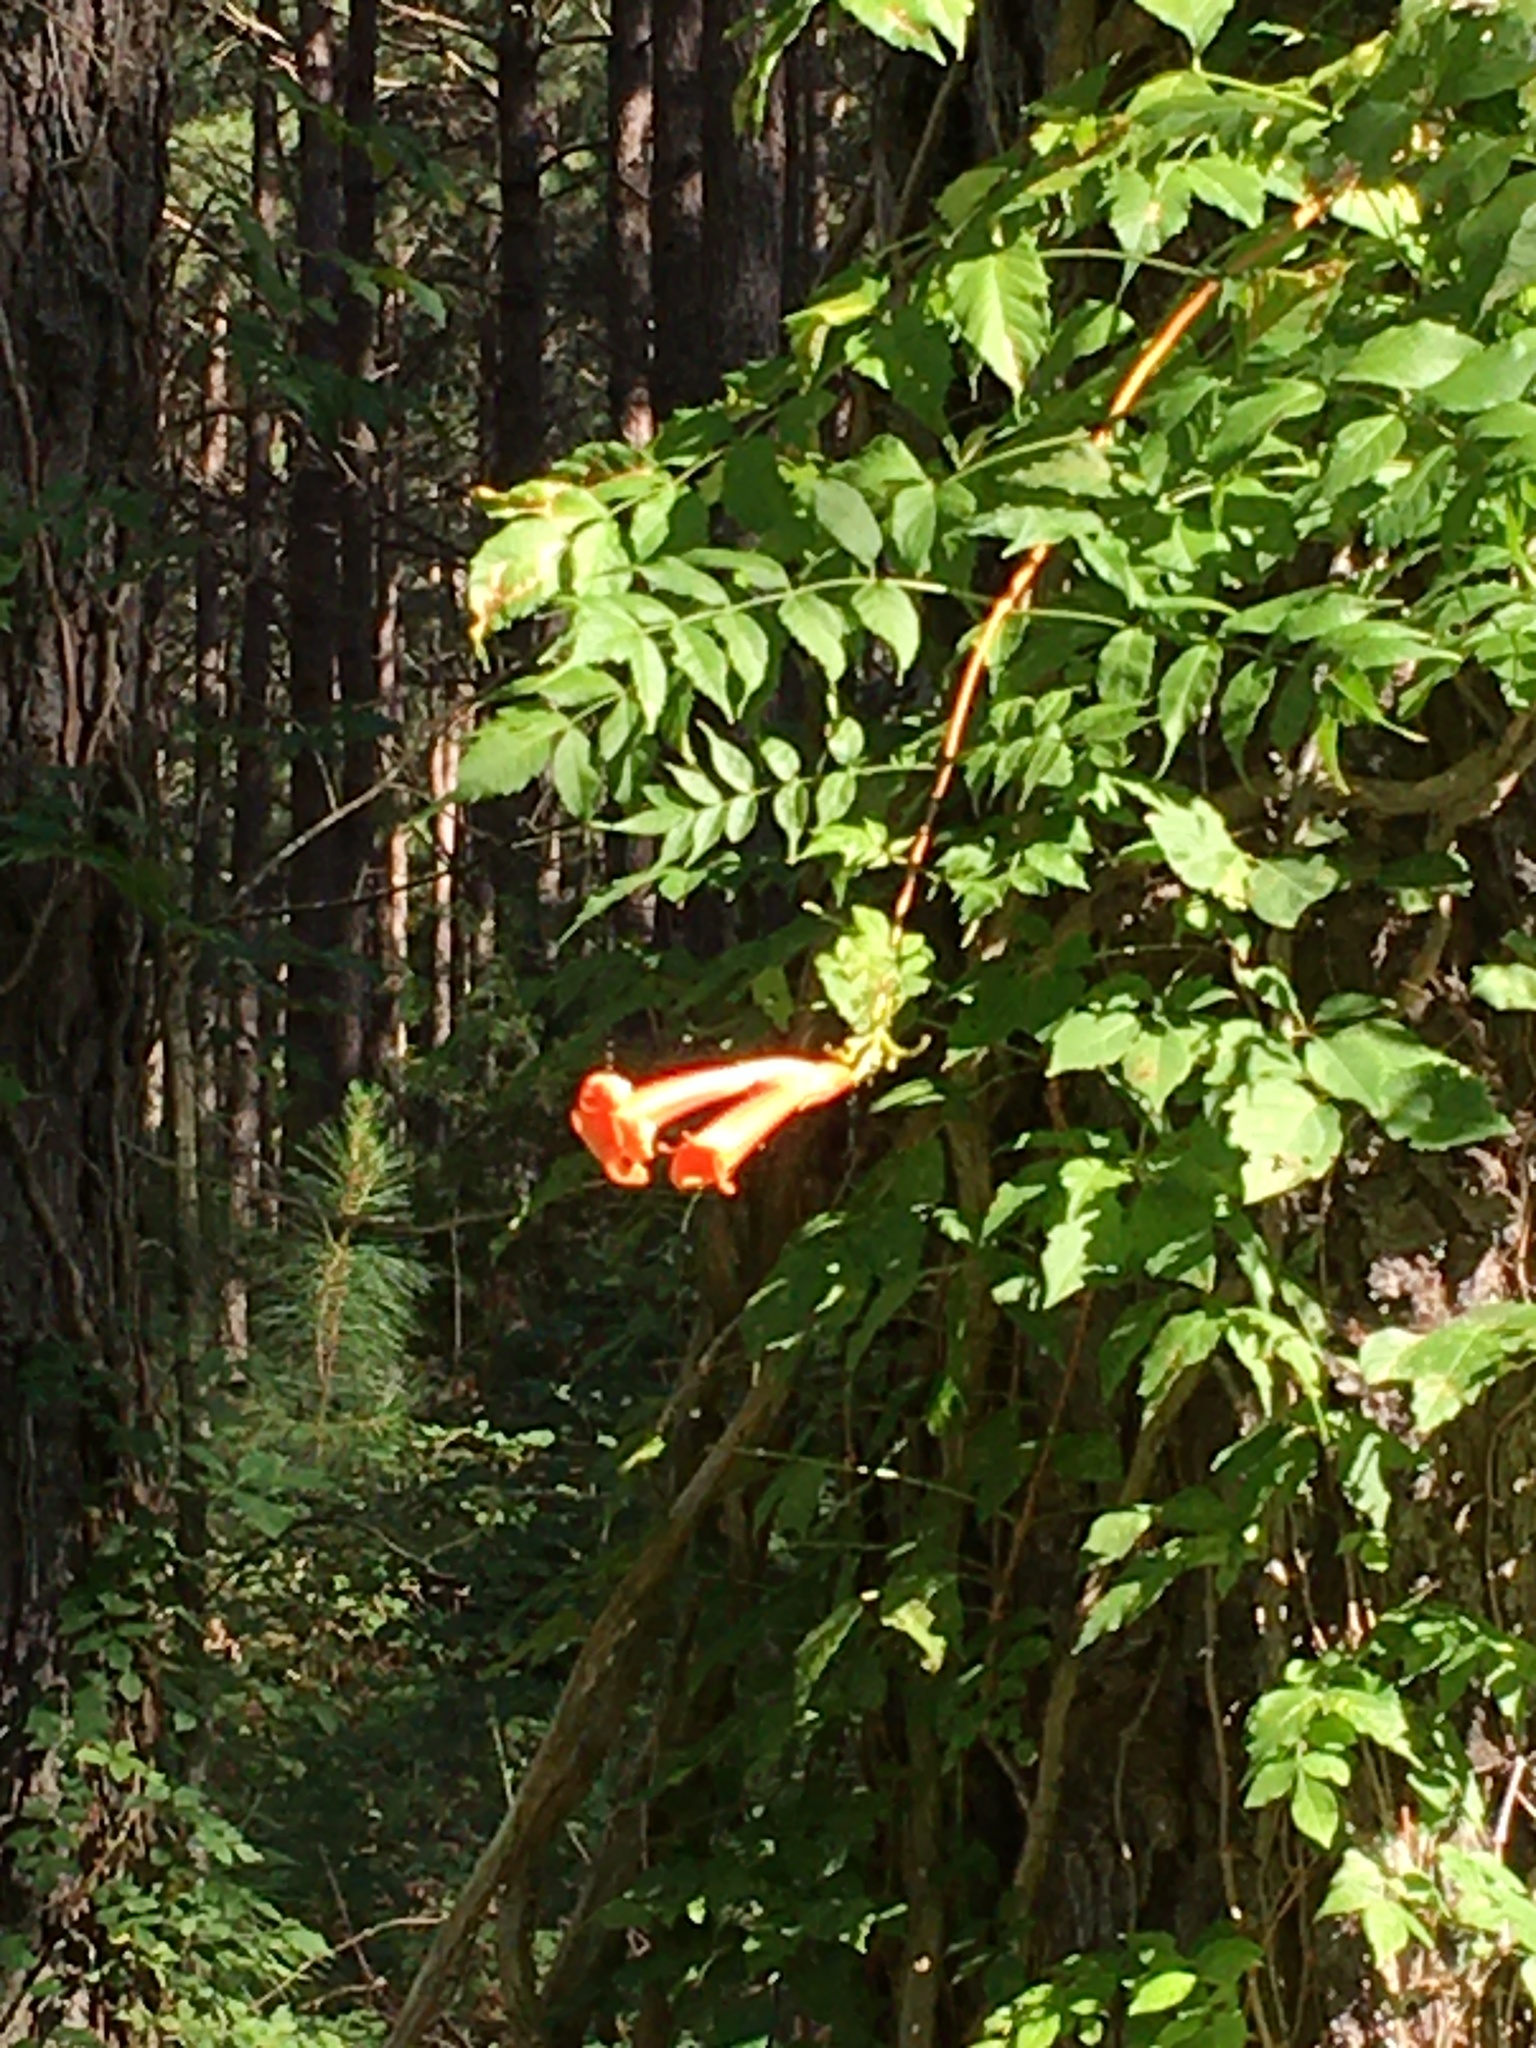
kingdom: Plantae
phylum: Tracheophyta
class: Magnoliopsida
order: Lamiales
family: Bignoniaceae
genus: Campsis
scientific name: Campsis radicans
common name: Trumpet-creeper
